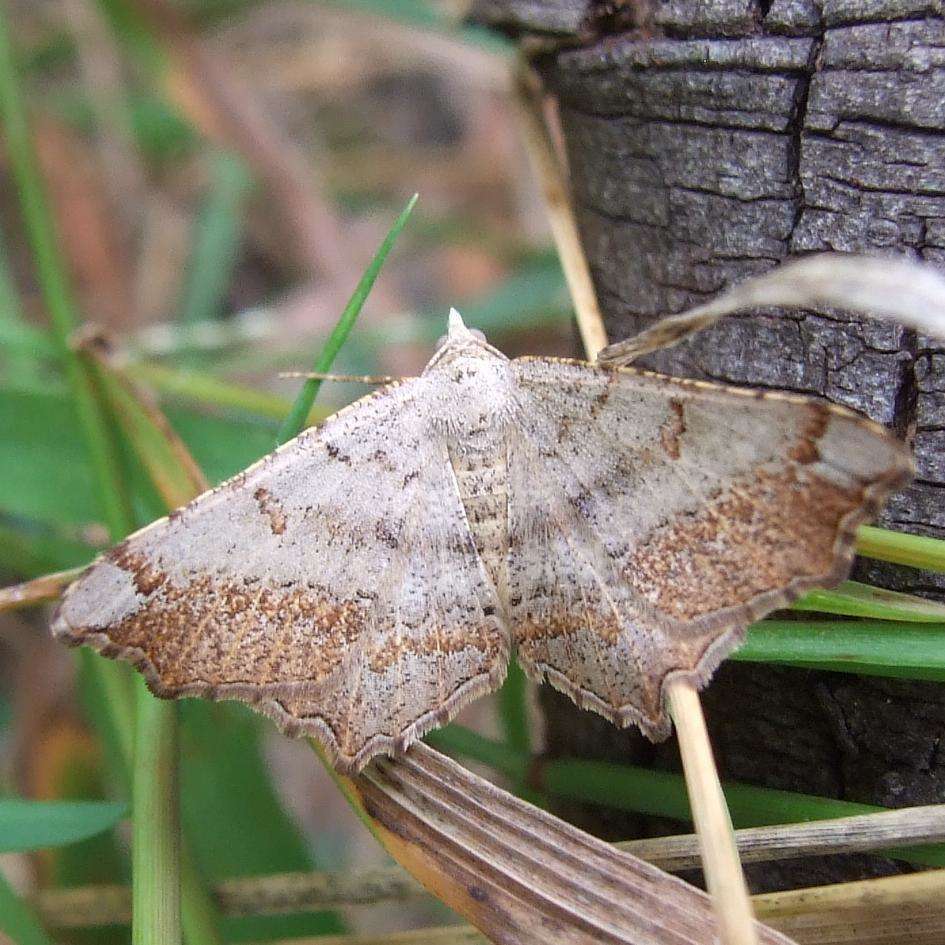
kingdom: Animalia
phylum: Arthropoda
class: Insecta
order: Lepidoptera
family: Geometridae
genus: Dissomorphia
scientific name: Dissomorphia australiaria
